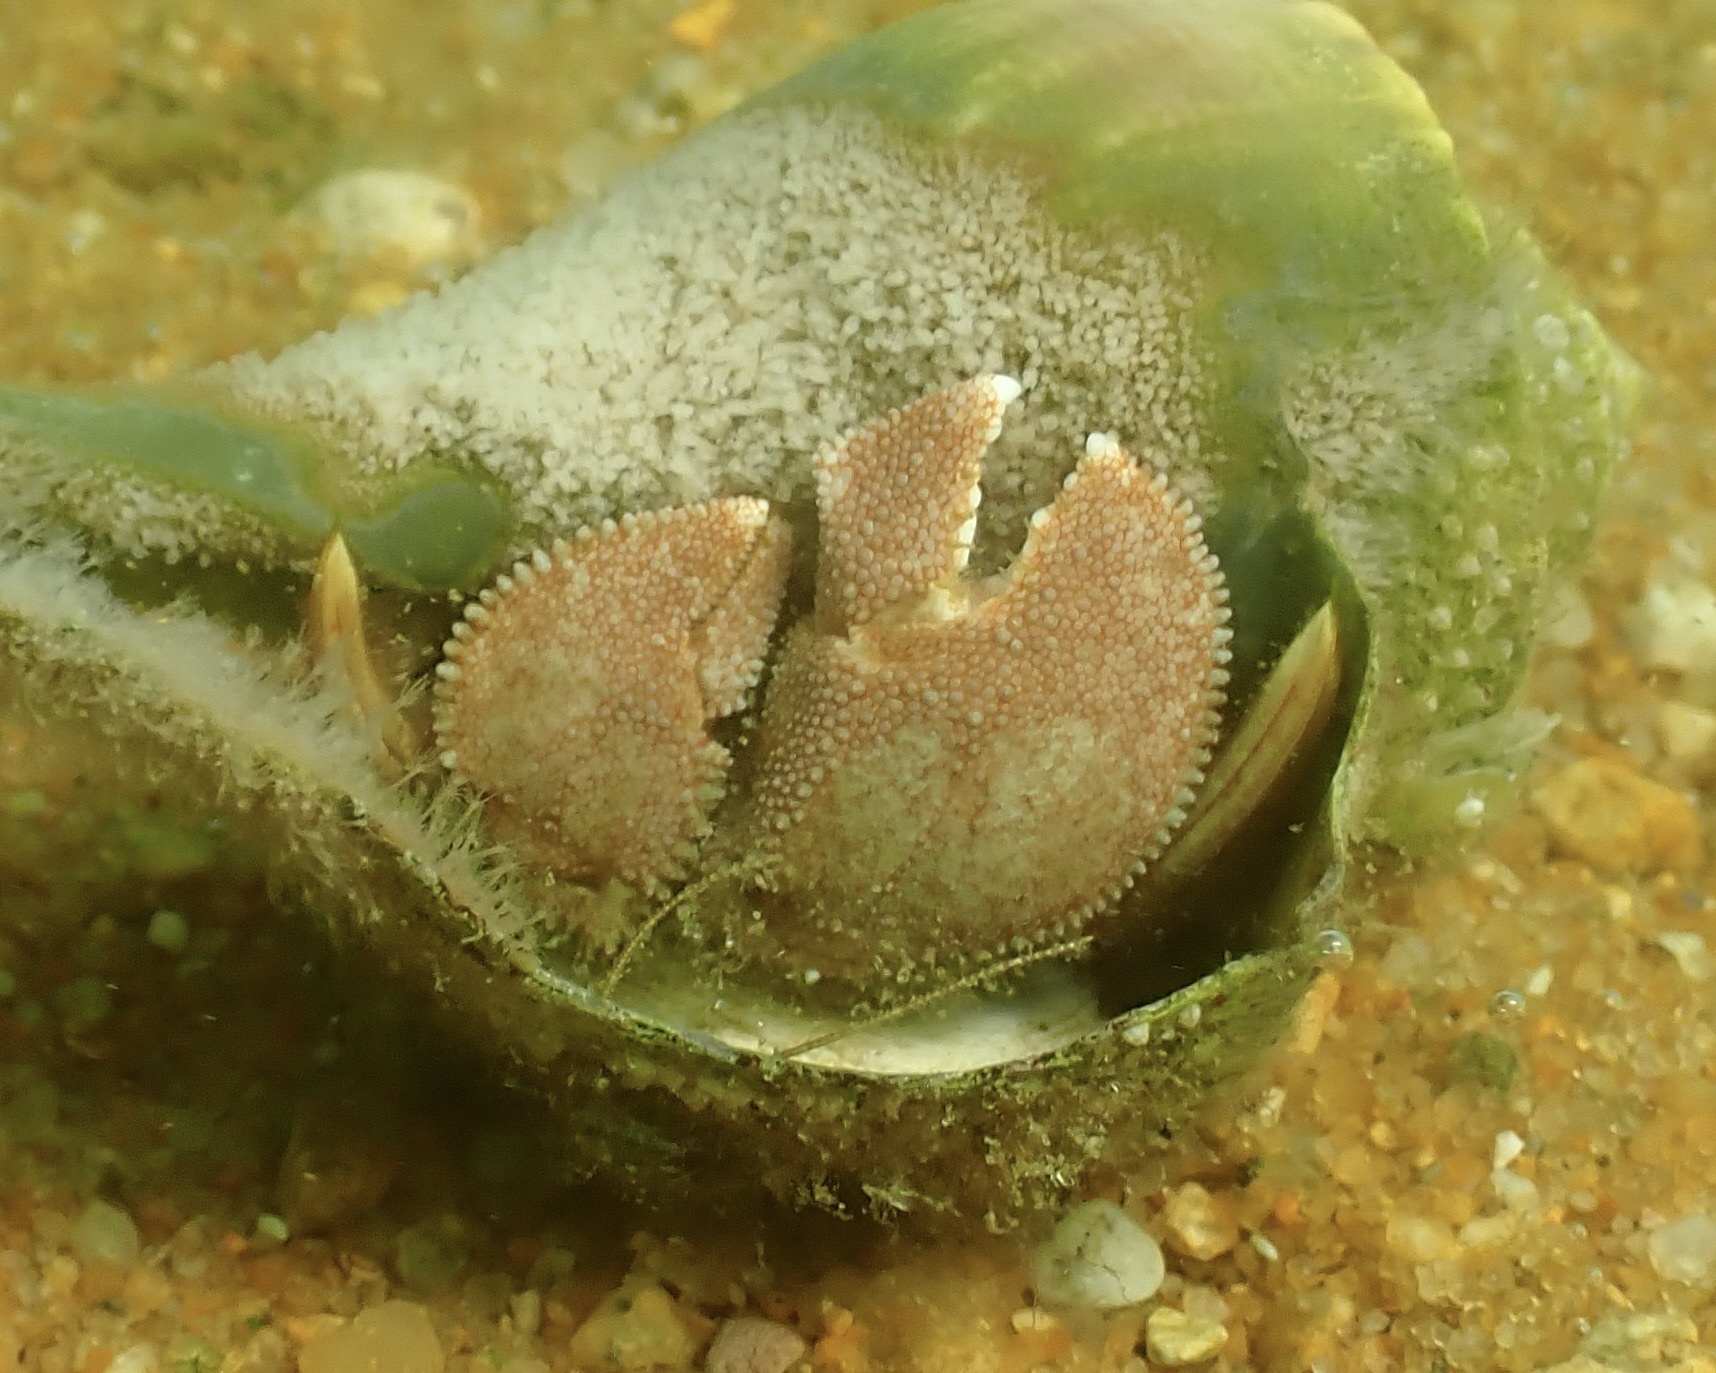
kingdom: Animalia
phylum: Arthropoda
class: Malacostraca
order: Decapoda
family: Paguridae
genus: Pagurus
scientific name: Pagurus pollicaris
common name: Flatclaw hermit
